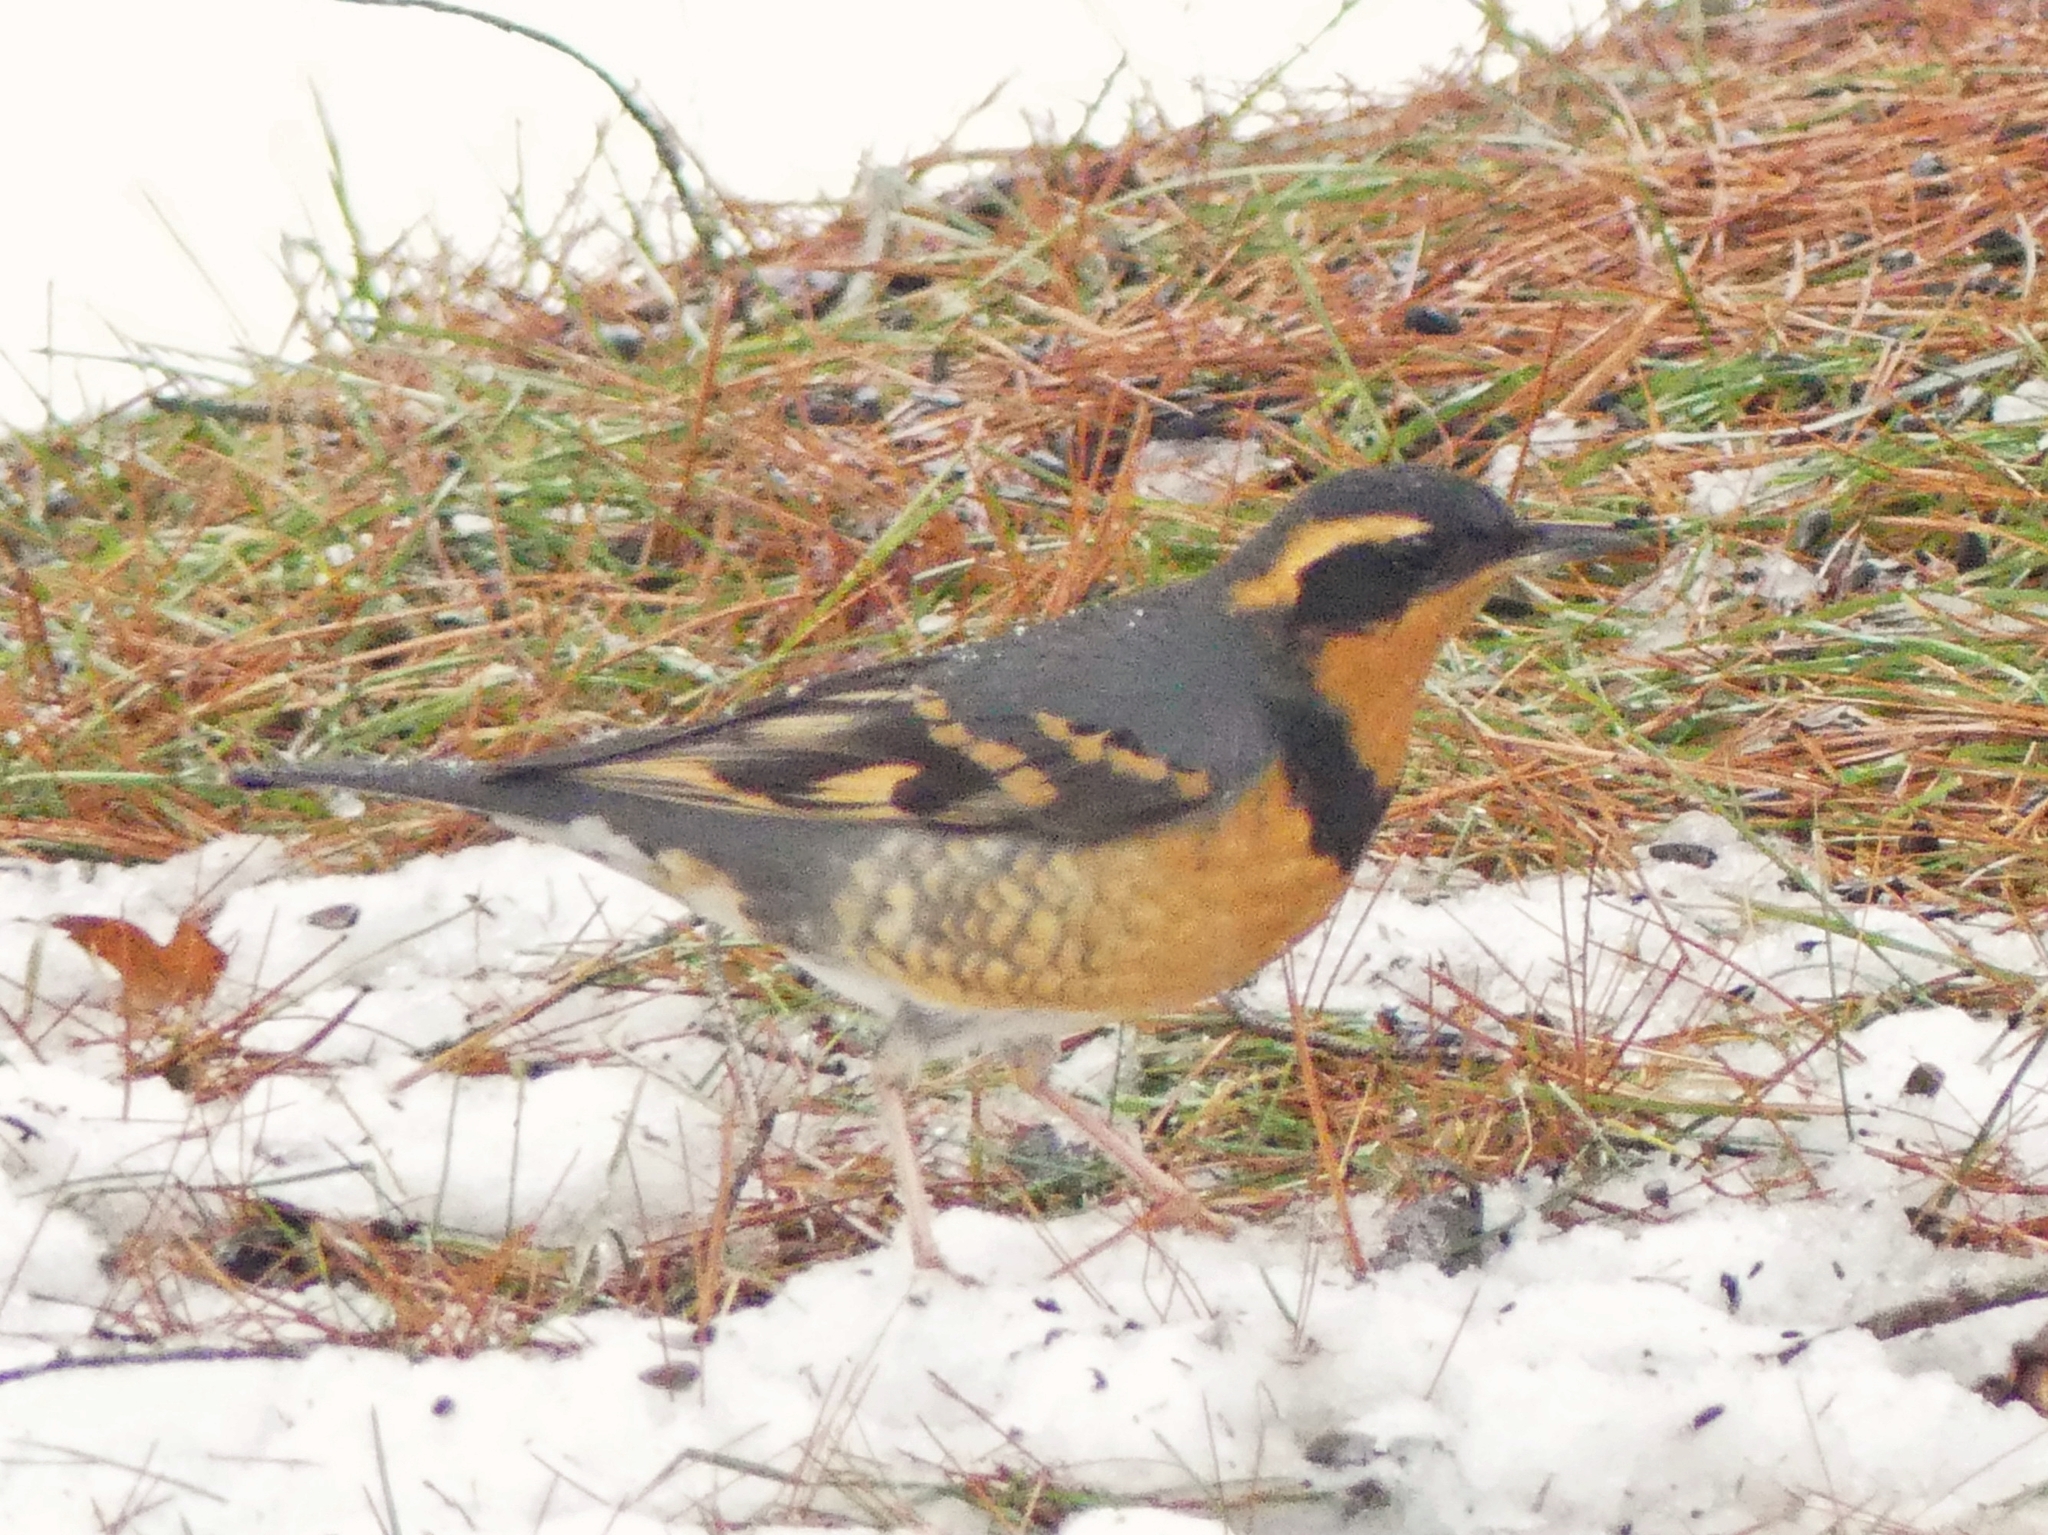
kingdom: Animalia
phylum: Chordata
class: Aves
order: Passeriformes
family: Turdidae
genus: Ixoreus
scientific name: Ixoreus naevius
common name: Varied thrush
